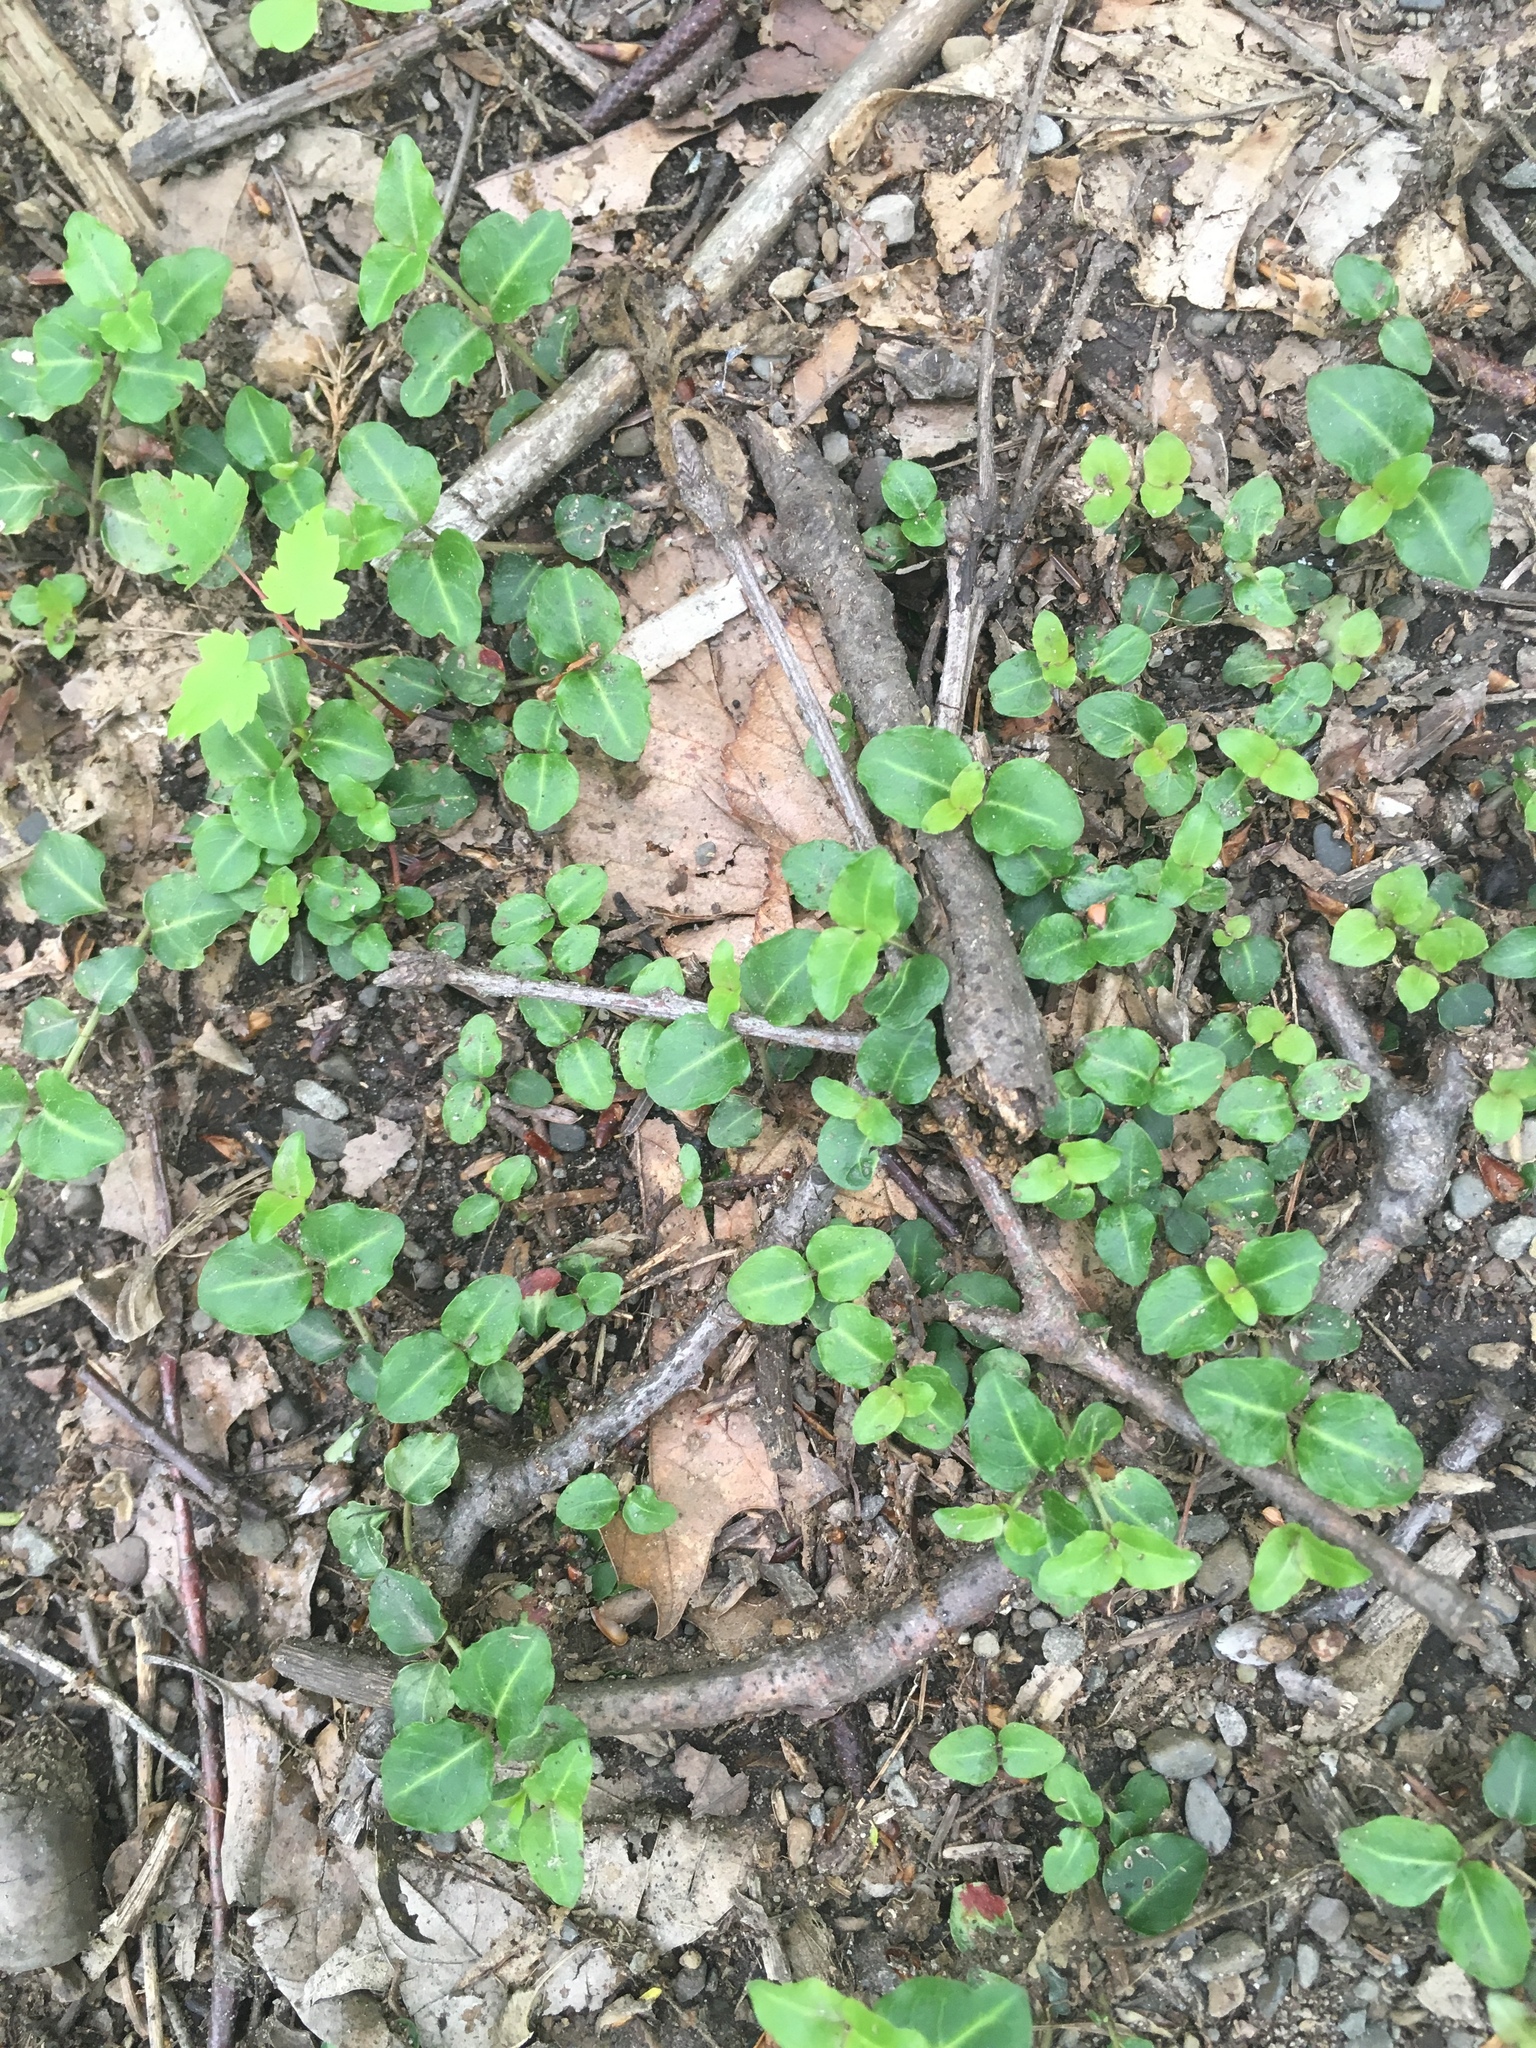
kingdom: Plantae
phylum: Tracheophyta
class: Magnoliopsida
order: Gentianales
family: Rubiaceae
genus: Mitchella
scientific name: Mitchella repens
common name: Partridge-berry
